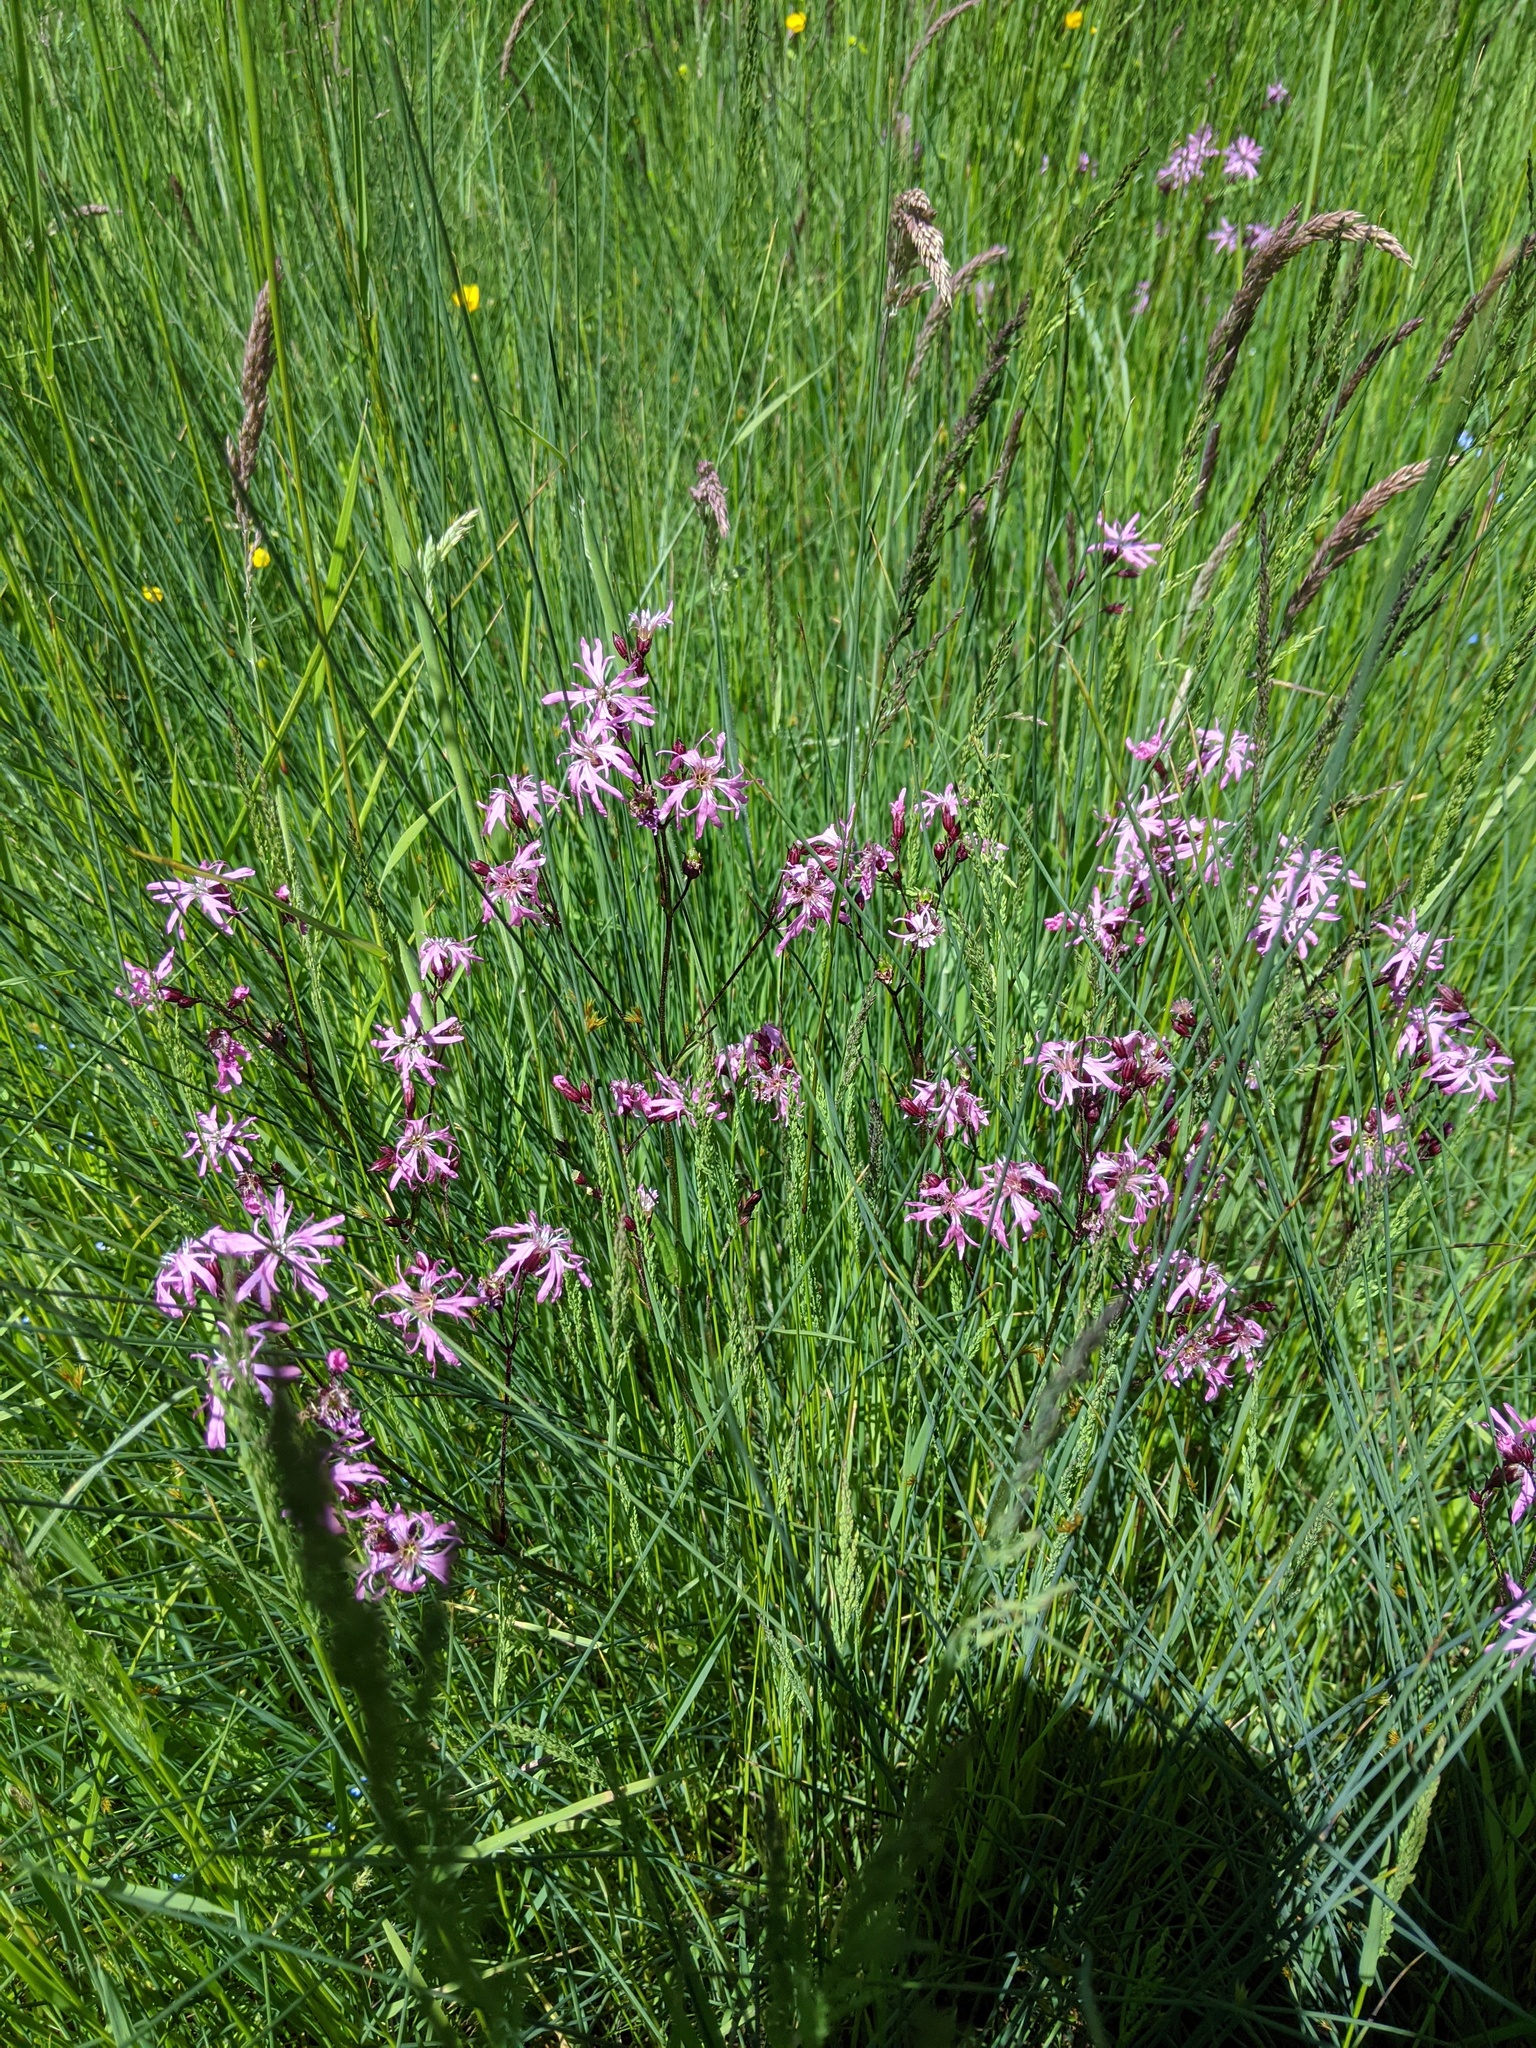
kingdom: Plantae
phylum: Tracheophyta
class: Magnoliopsida
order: Caryophyllales
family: Caryophyllaceae
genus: Silene
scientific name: Silene flos-cuculi
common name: Ragged-robin
